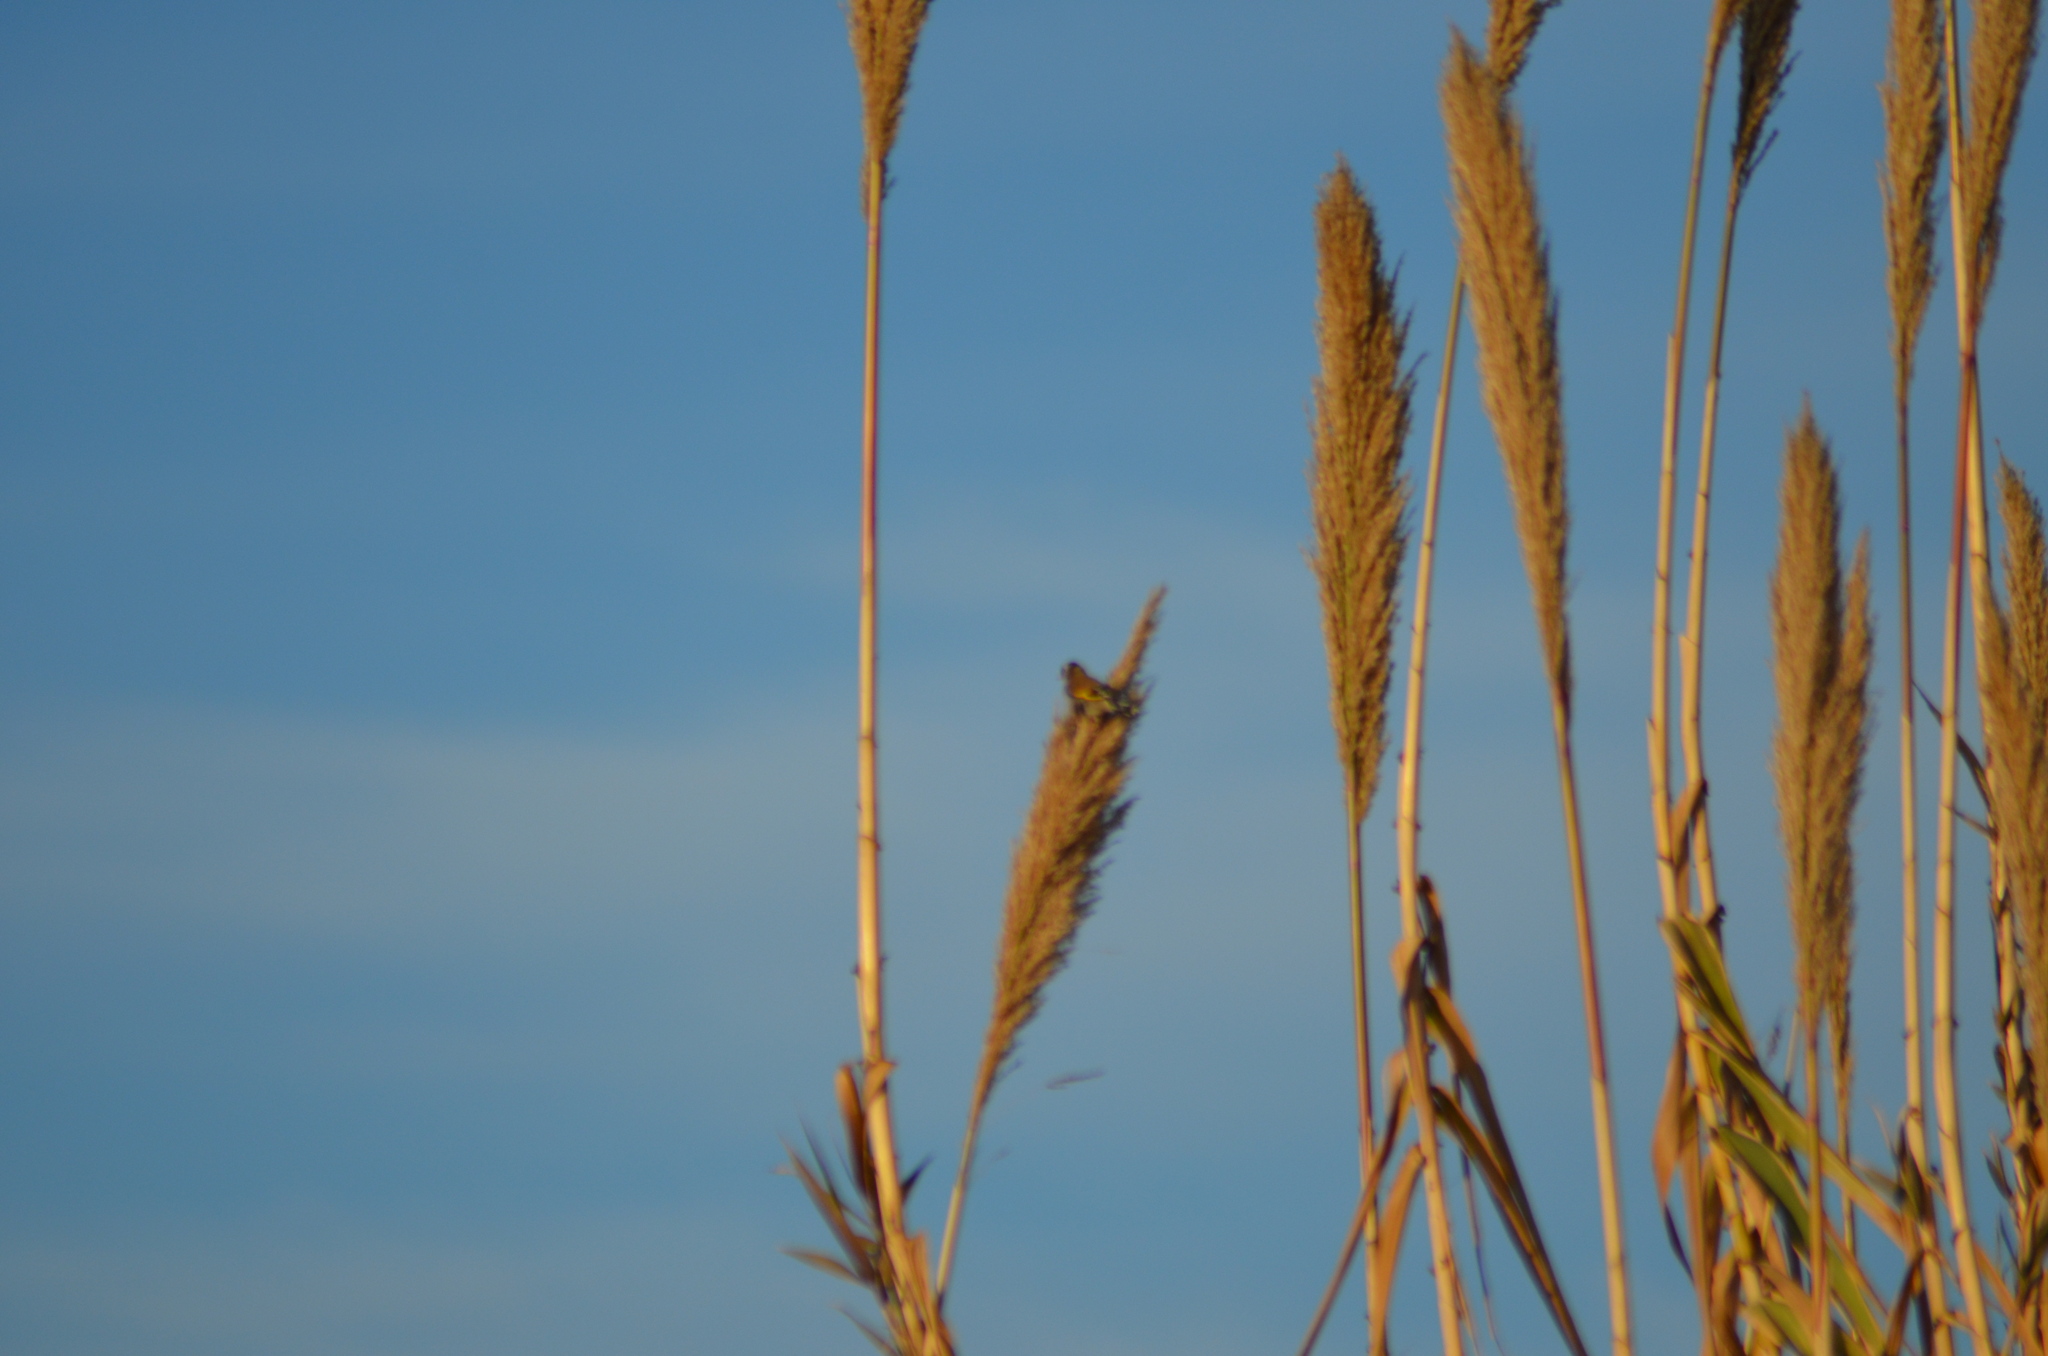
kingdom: Animalia
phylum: Chordata
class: Aves
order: Passeriformes
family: Fringillidae
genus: Carduelis
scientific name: Carduelis carduelis
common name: European goldfinch
